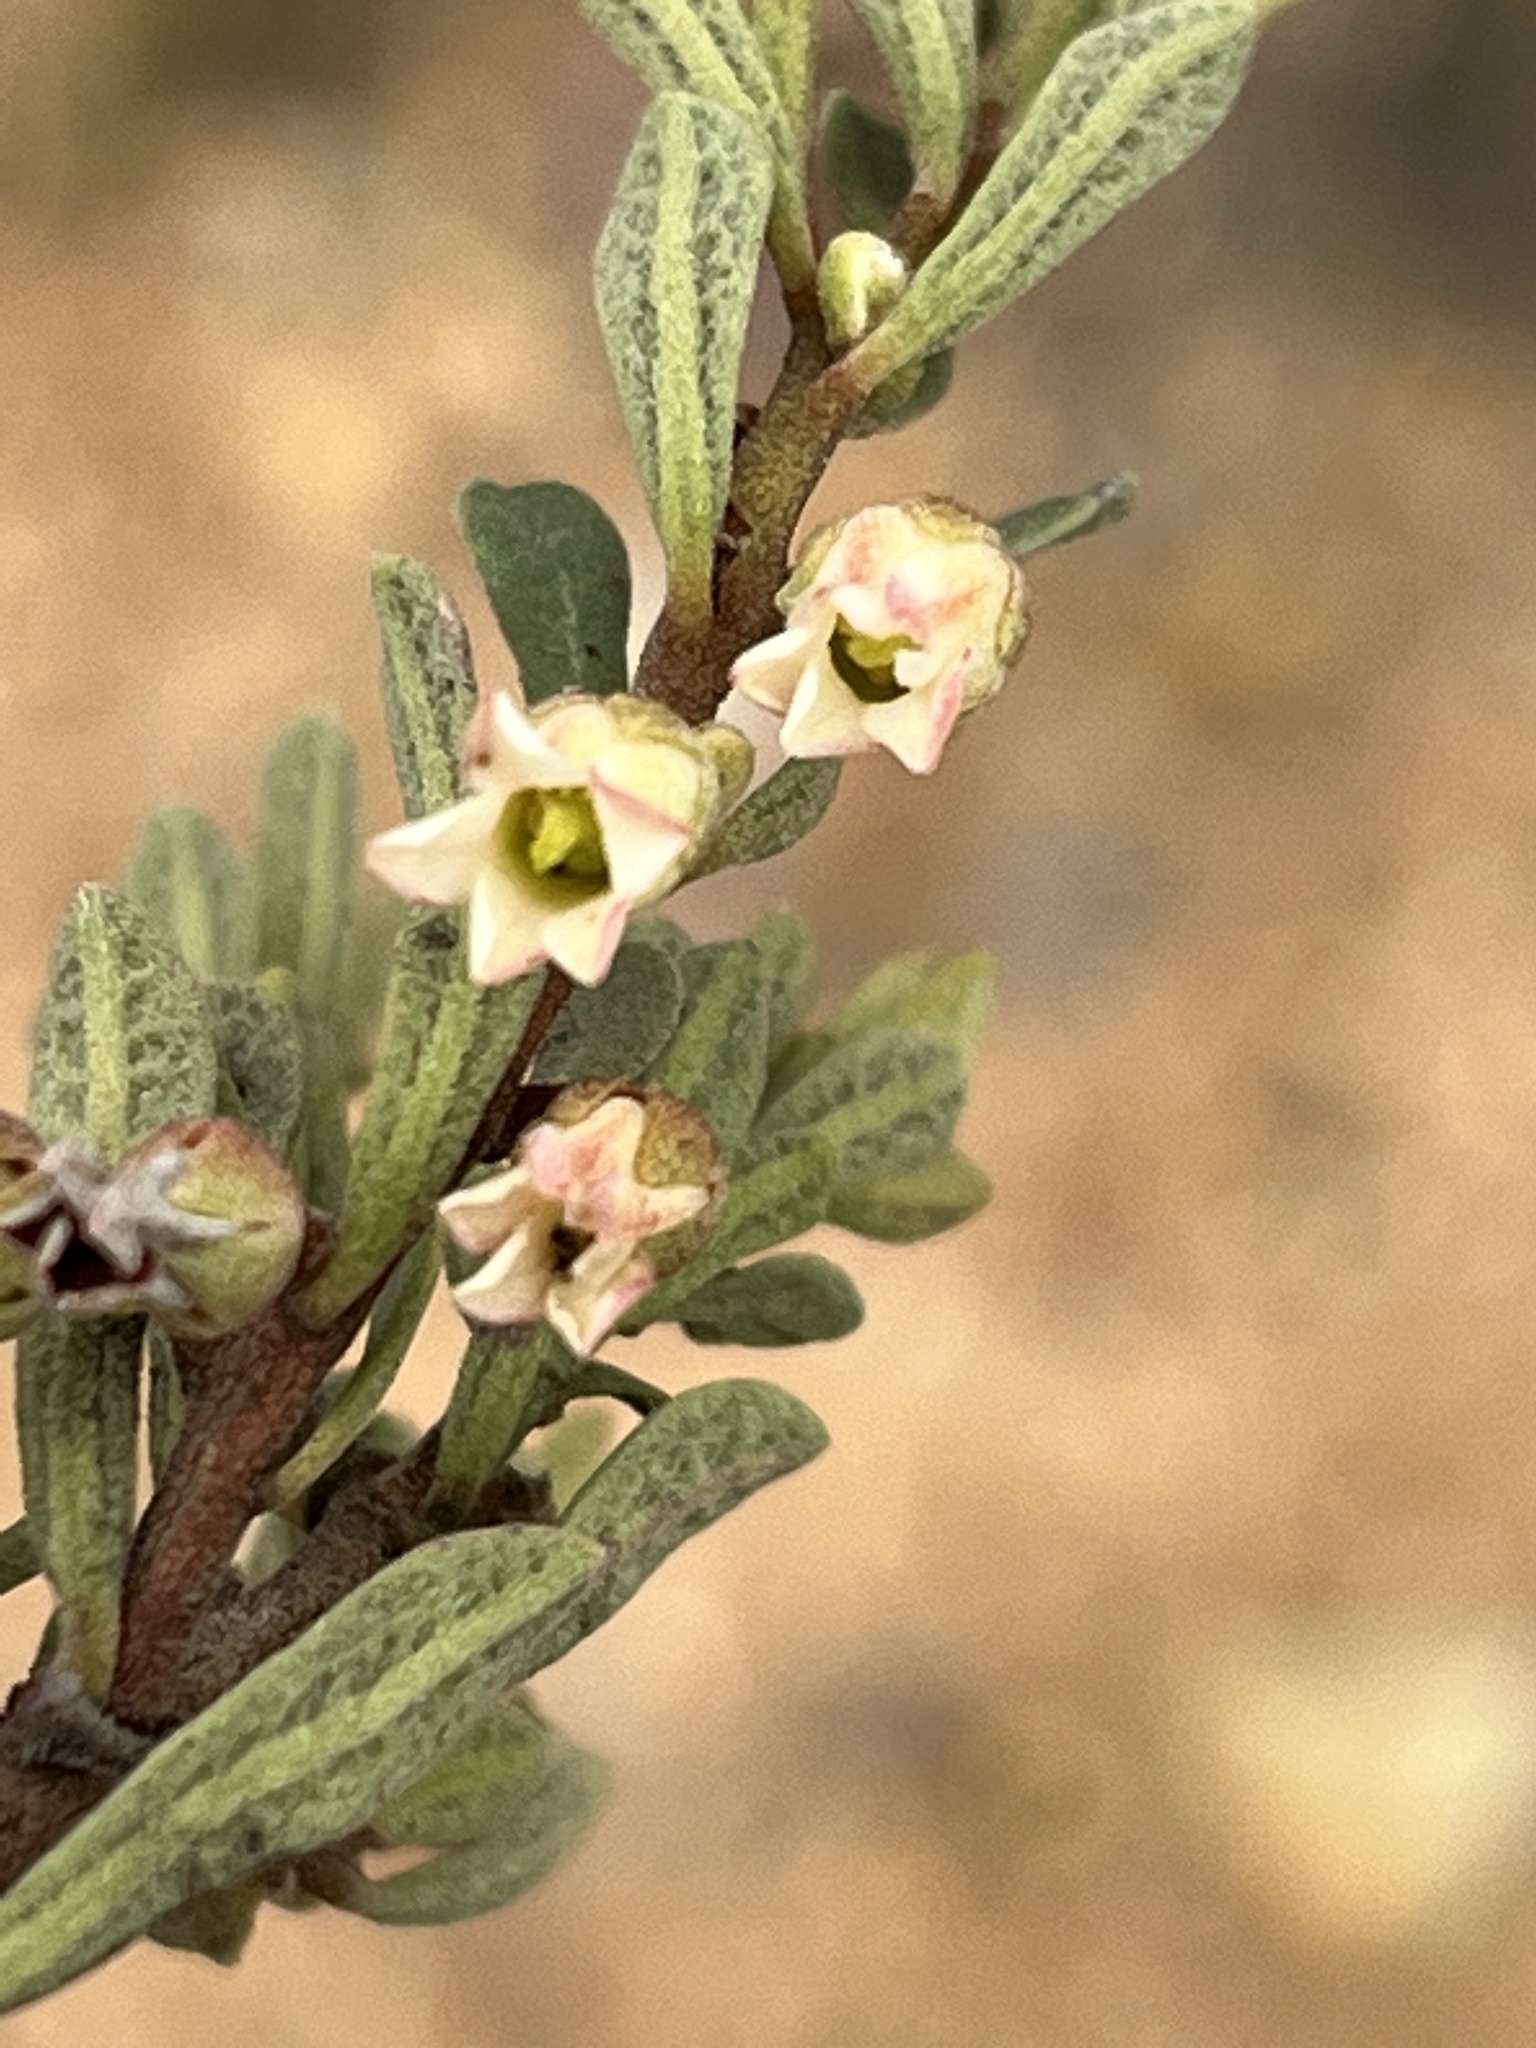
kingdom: Plantae
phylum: Tracheophyta
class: Magnoliopsida
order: Ericales
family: Ebenaceae
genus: Diospyros
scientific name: Diospyros pubescens
